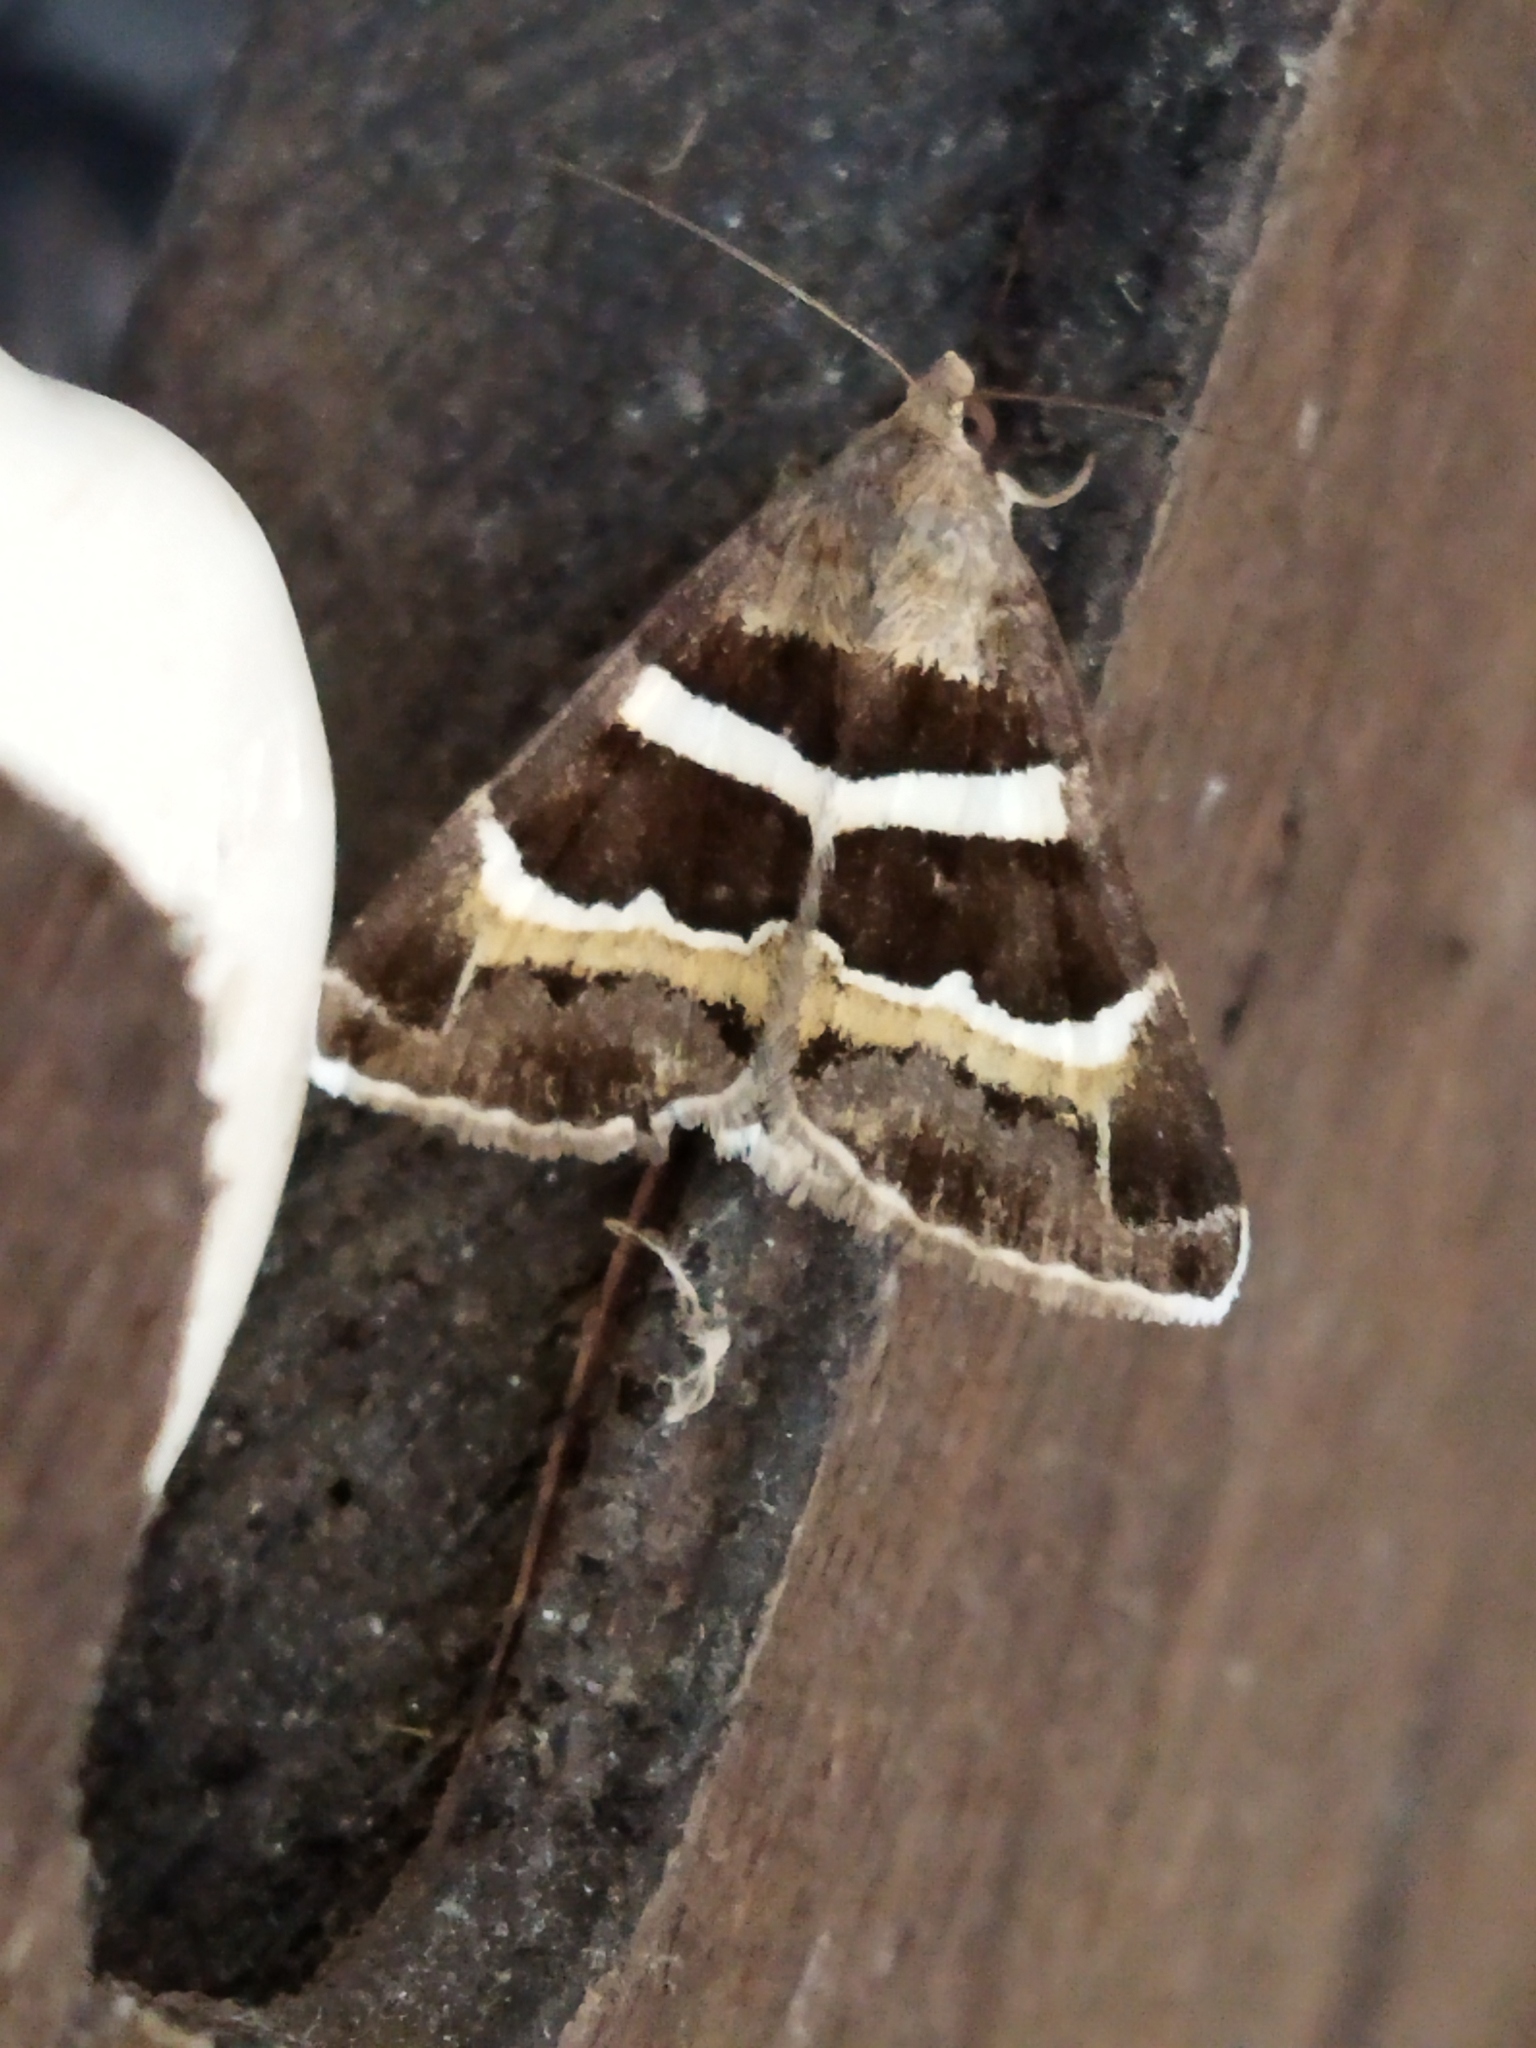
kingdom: Animalia
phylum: Arthropoda
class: Insecta
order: Lepidoptera
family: Erebidae
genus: Grammodes
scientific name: Grammodes stolida
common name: Geometrician
